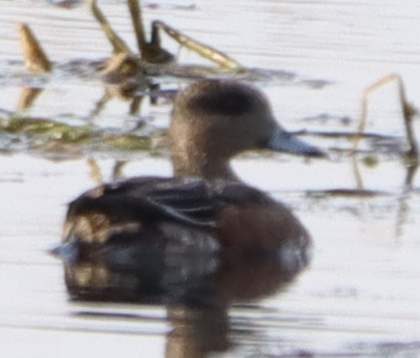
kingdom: Animalia
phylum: Chordata
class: Aves
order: Anseriformes
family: Anatidae
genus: Mareca
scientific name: Mareca americana
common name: American wigeon
